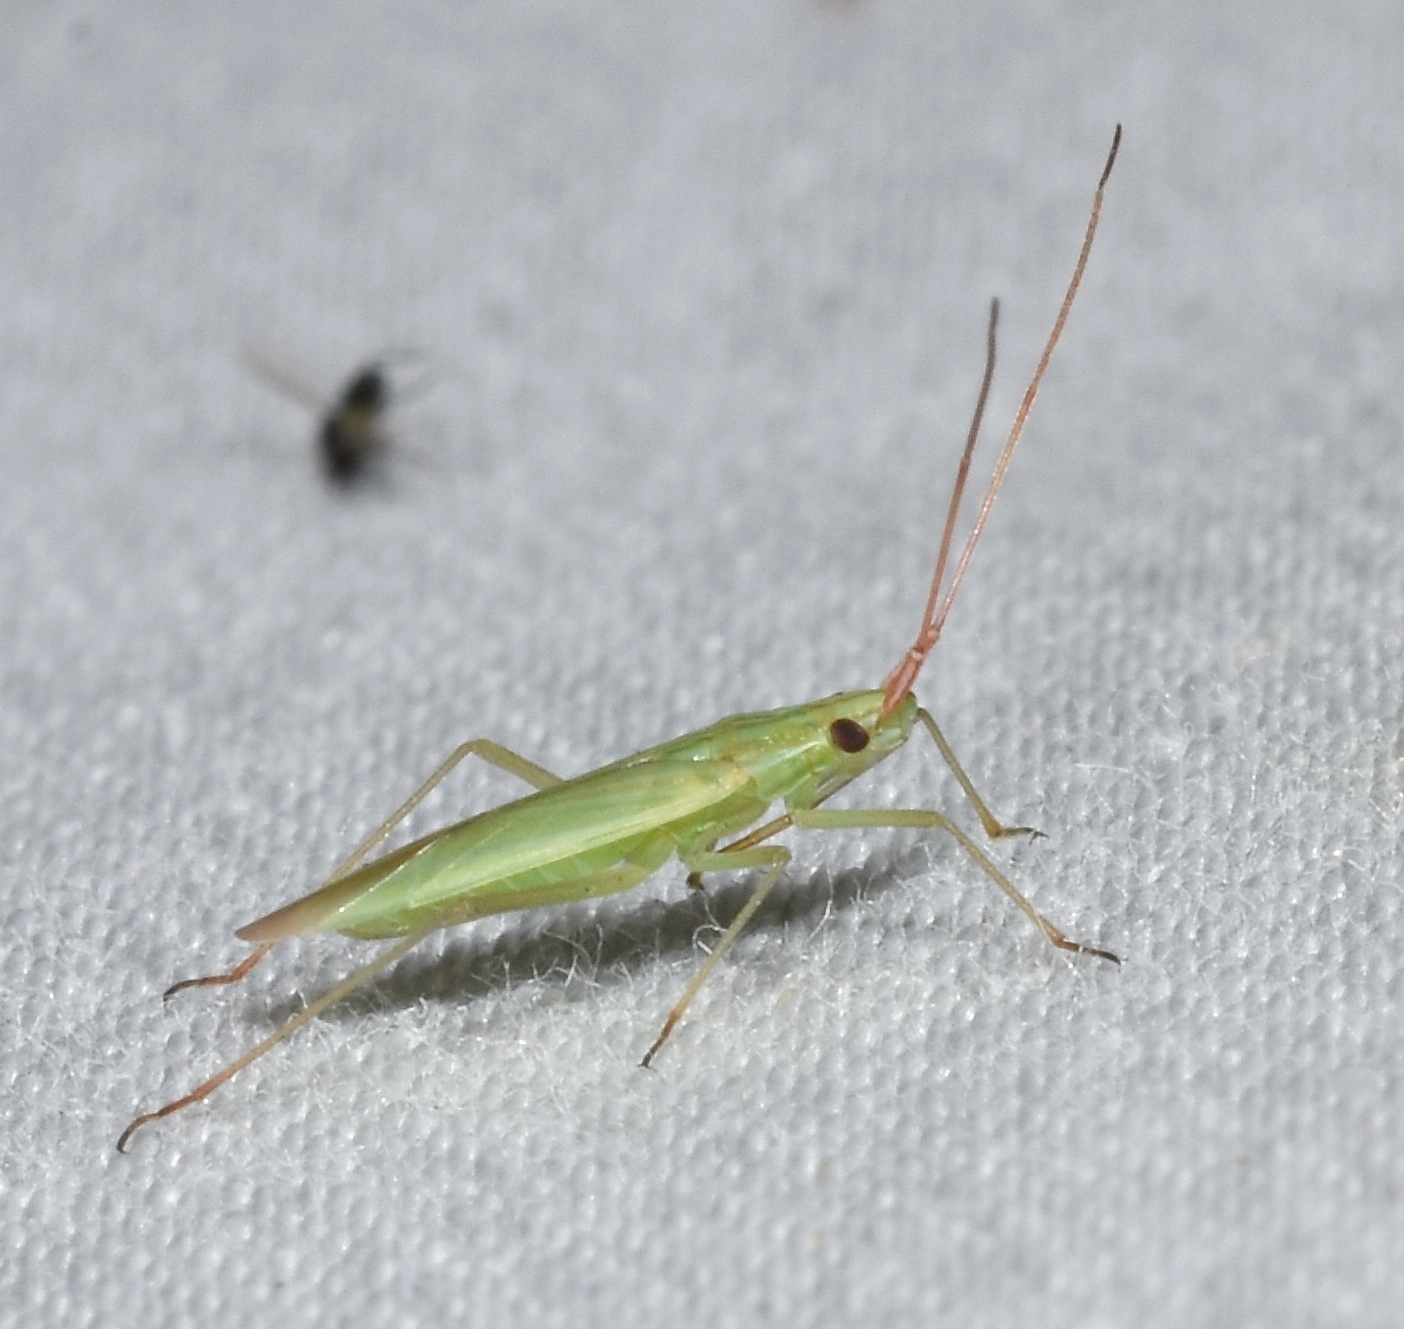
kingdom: Animalia
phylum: Arthropoda
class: Insecta
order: Hemiptera
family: Miridae
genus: Trigonotylus
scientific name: Trigonotylus caelestialium
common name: Rice leaf bug
